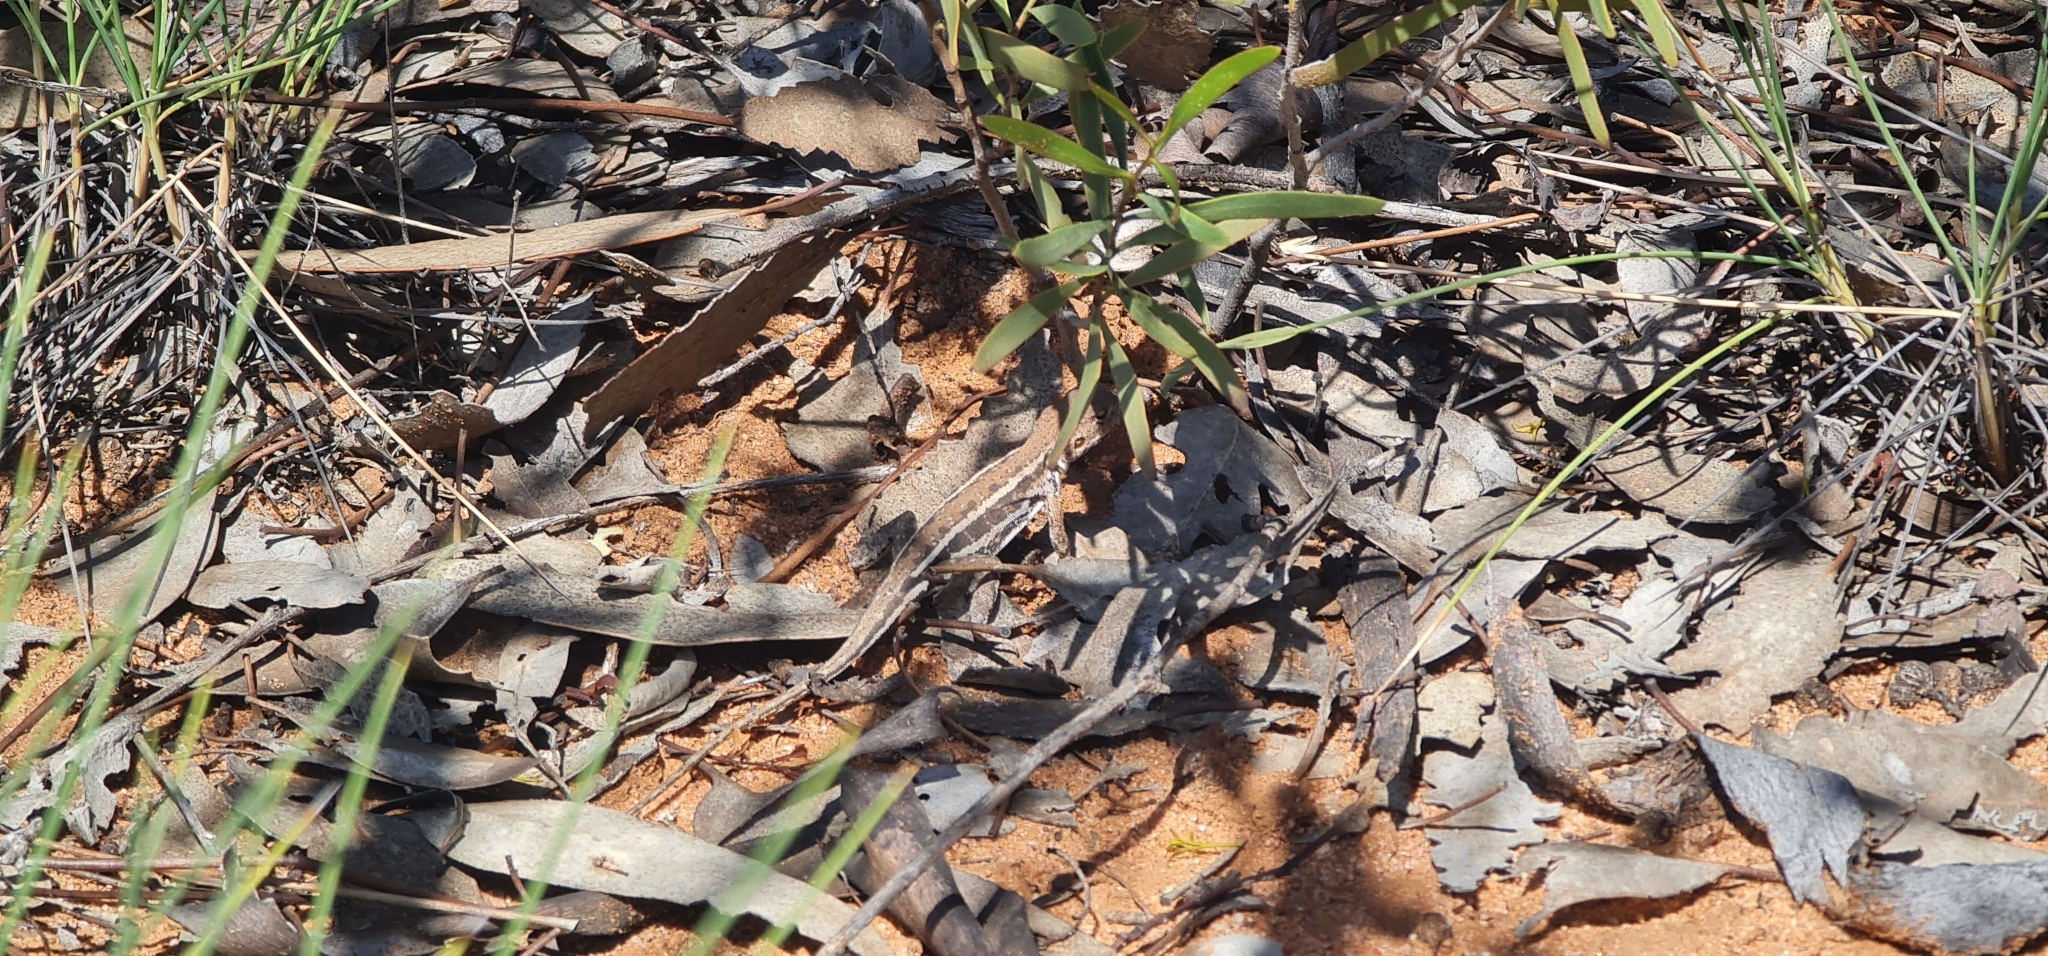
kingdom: Animalia
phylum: Chordata
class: Squamata
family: Agamidae
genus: Ctenophorus
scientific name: Ctenophorus spinodomus
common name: Eastern mallee dragon
